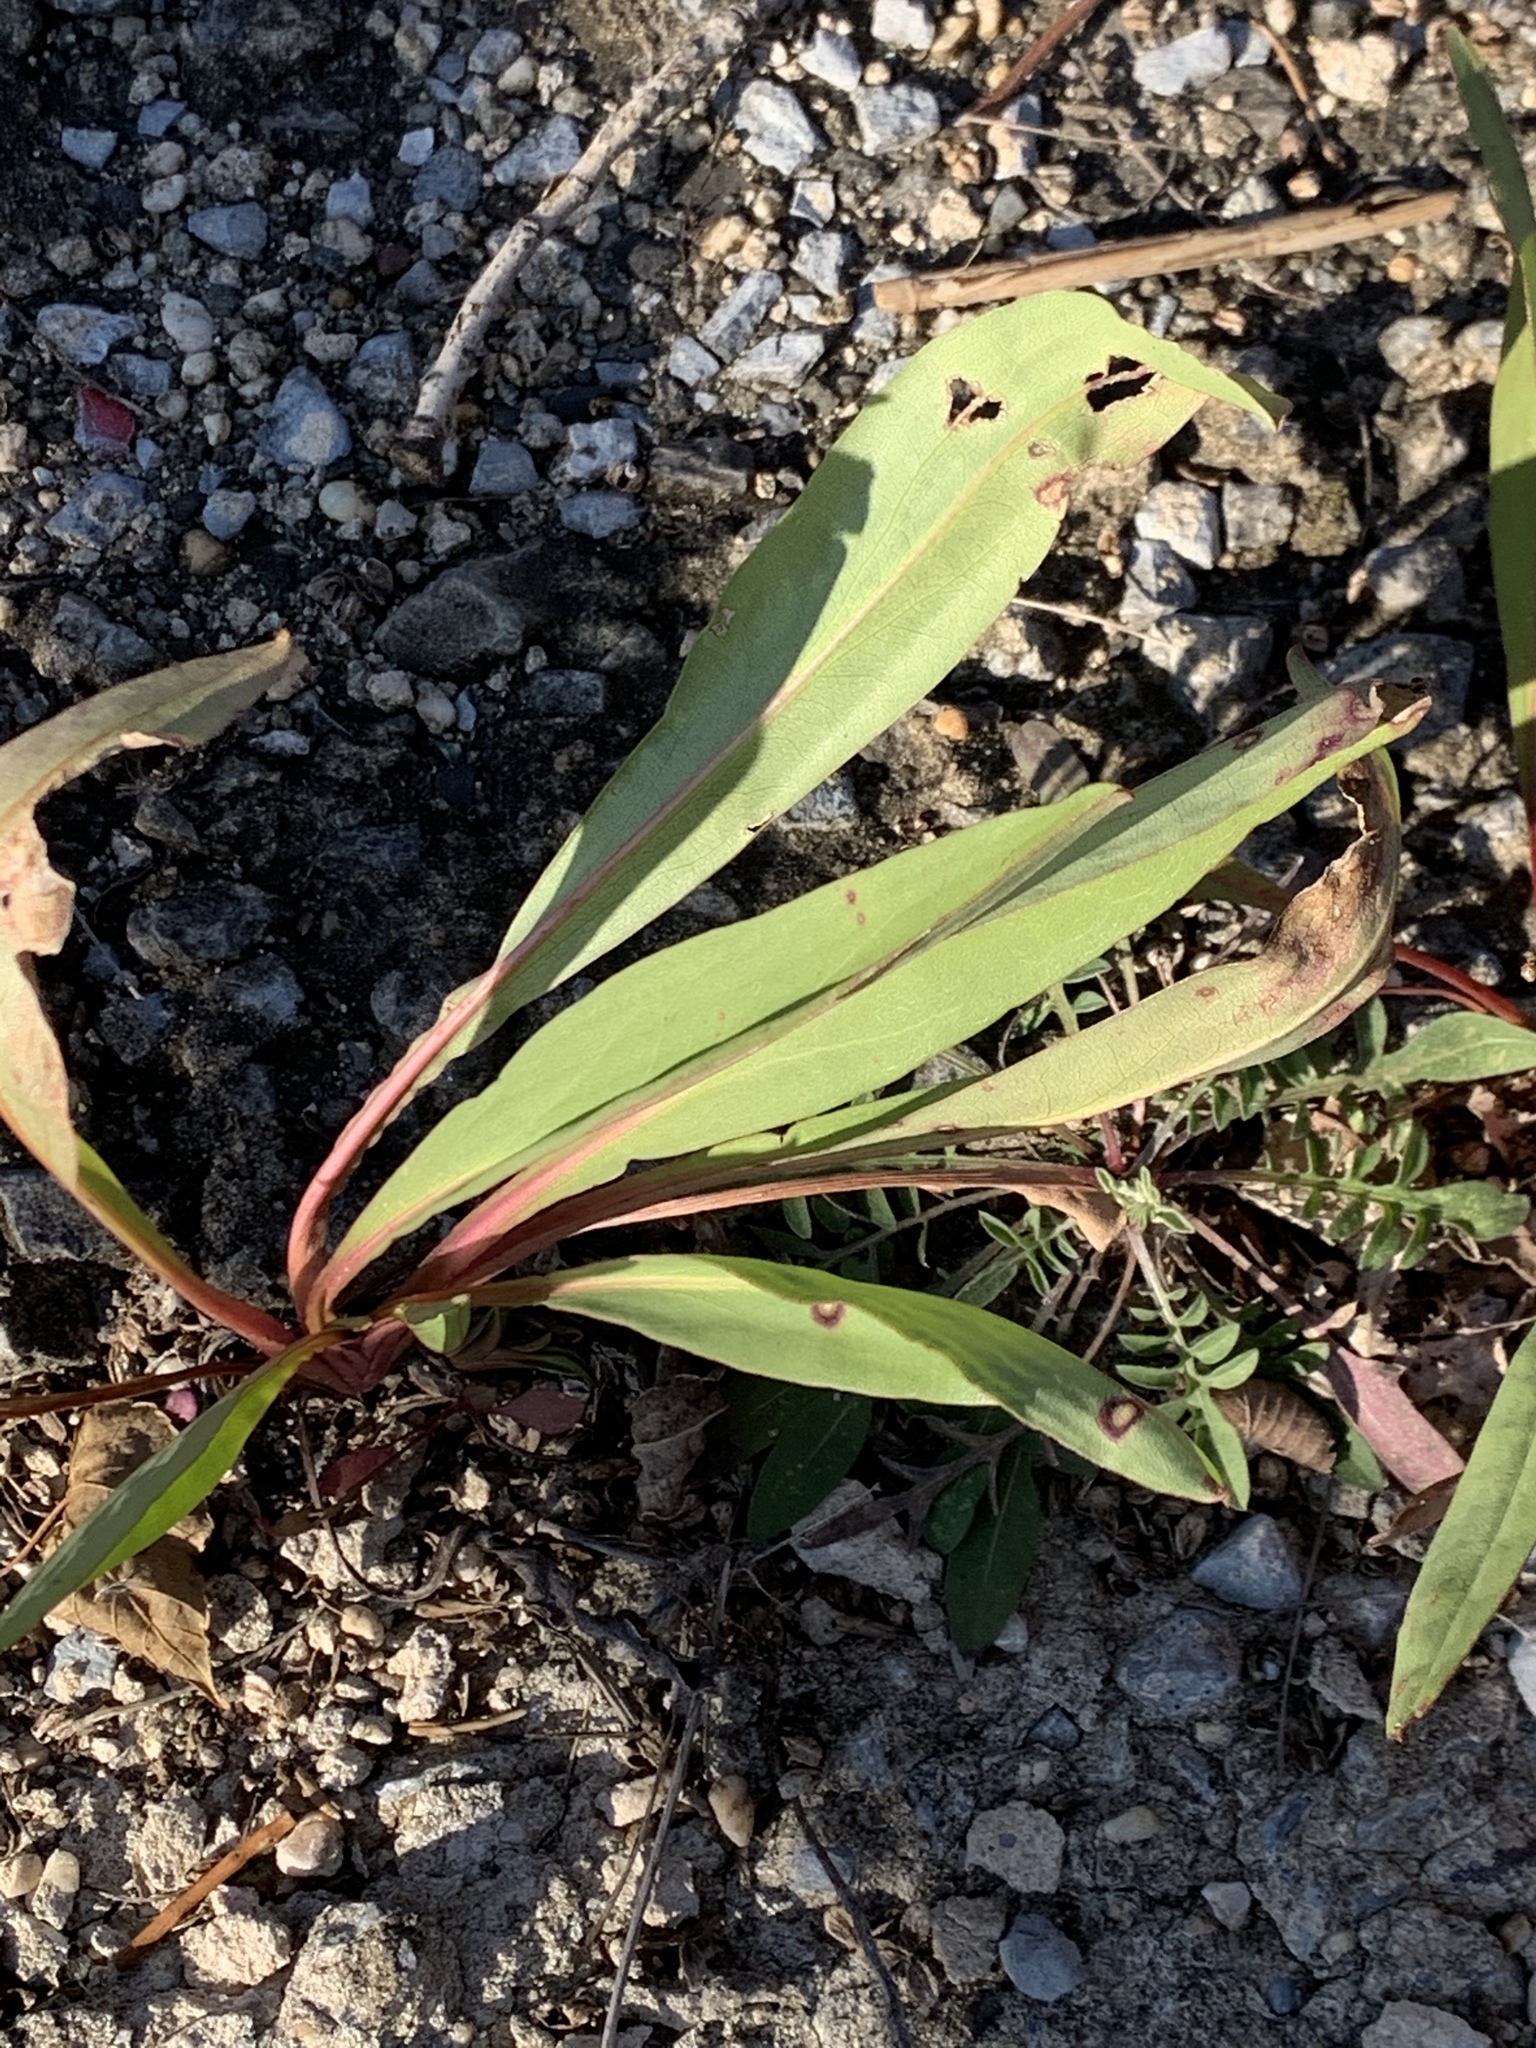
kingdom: Plantae
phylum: Tracheophyta
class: Magnoliopsida
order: Asterales
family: Asteraceae
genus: Solidago
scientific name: Solidago sempervirens
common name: Salt-marsh goldenrod
